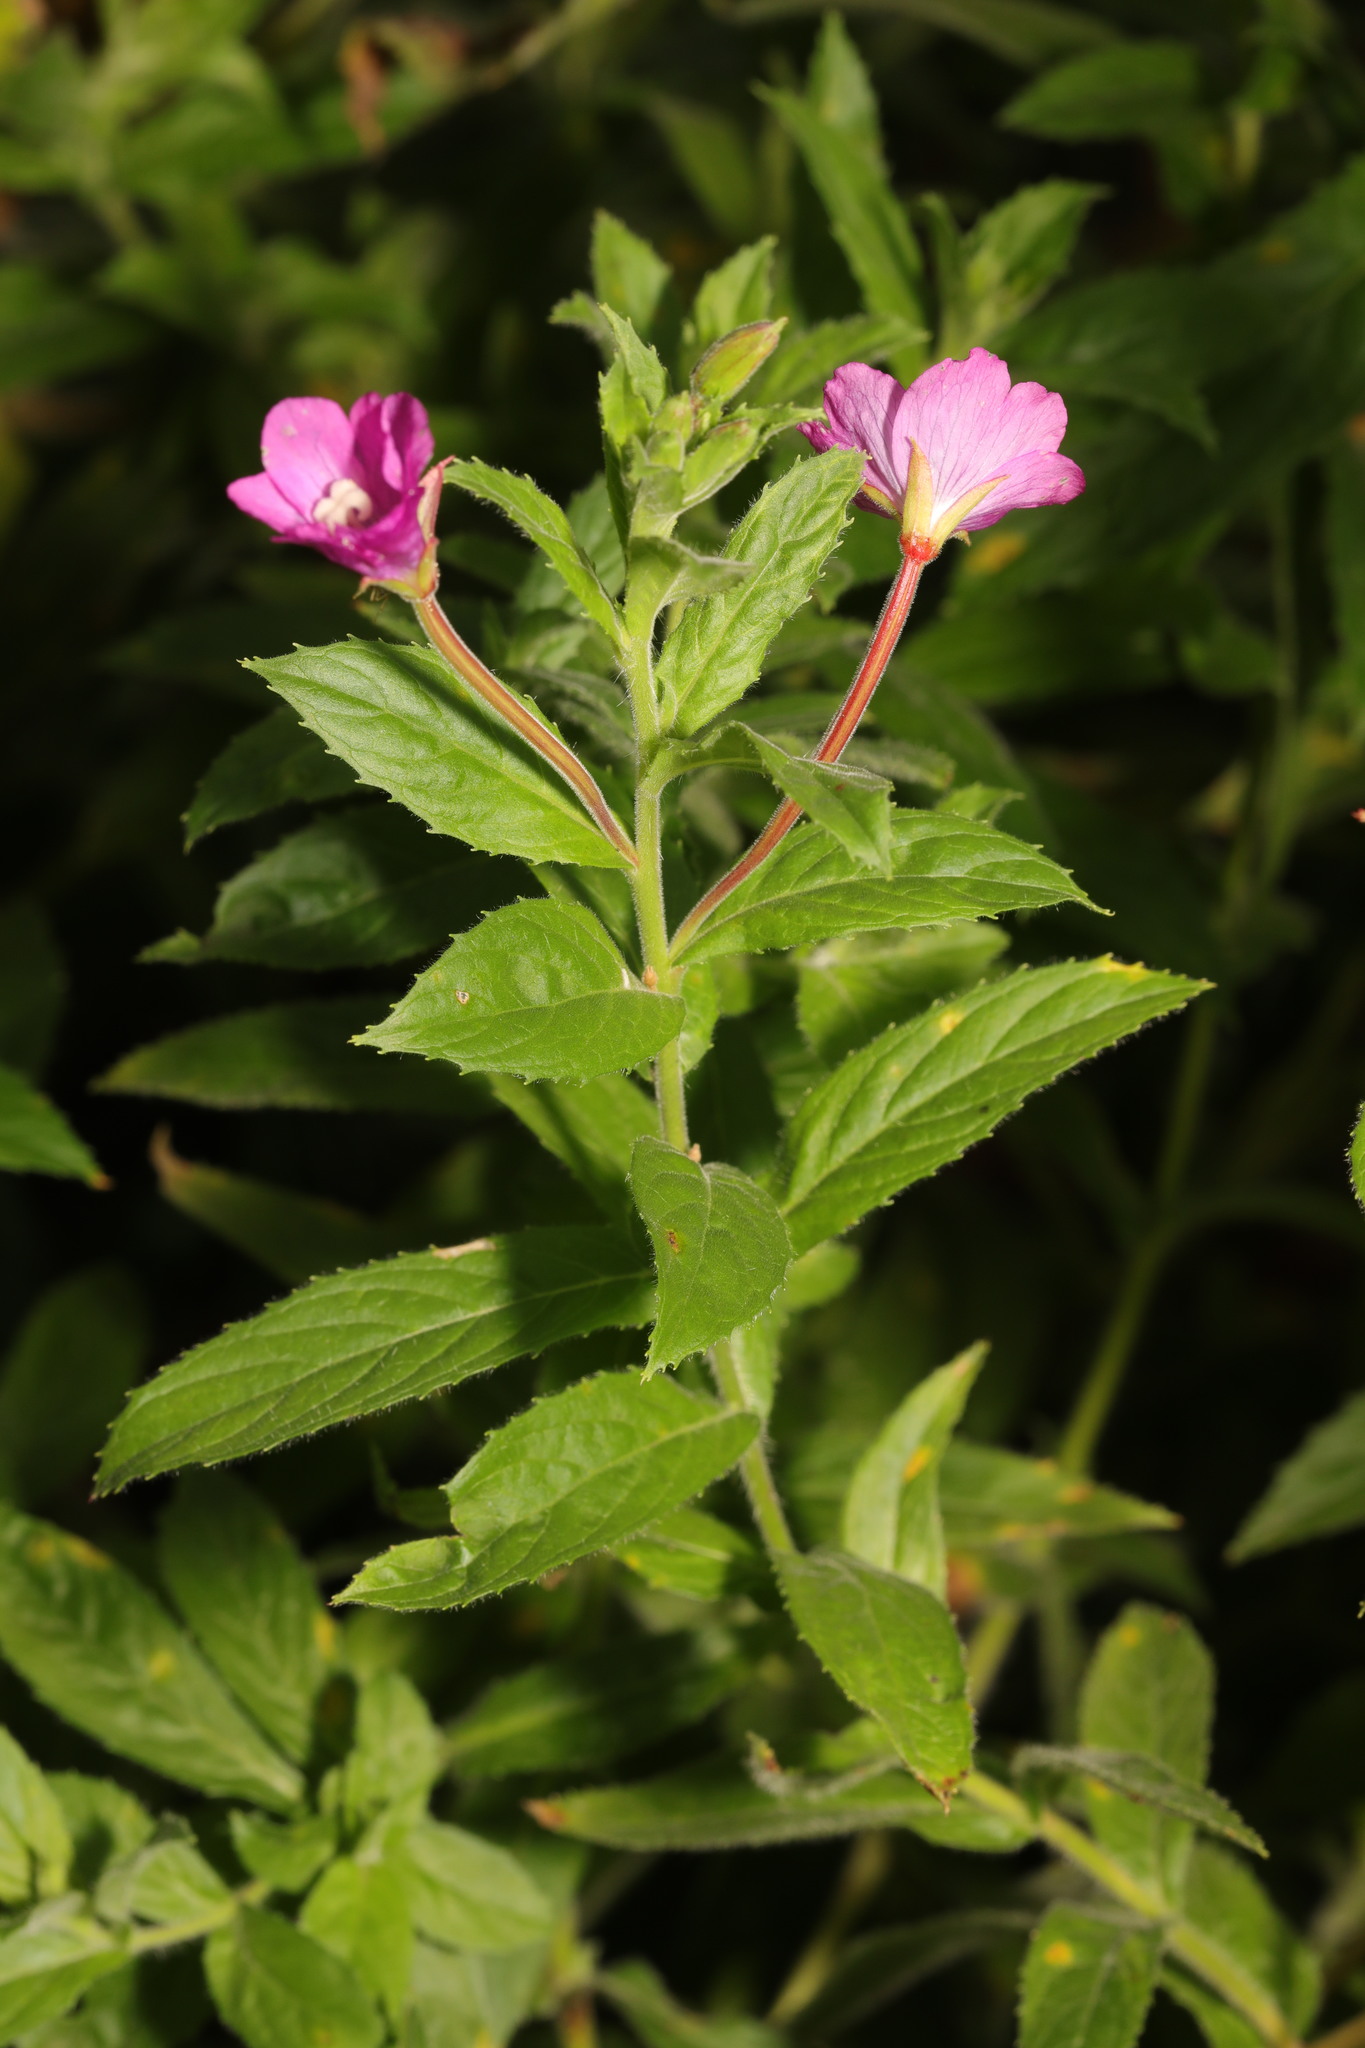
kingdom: Plantae
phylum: Tracheophyta
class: Magnoliopsida
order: Myrtales
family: Onagraceae
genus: Epilobium
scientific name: Epilobium hirsutum
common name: Great willowherb
